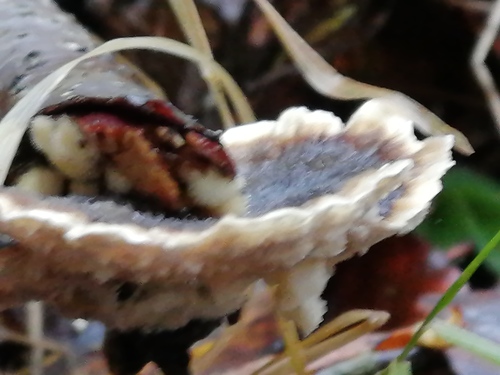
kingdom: Fungi
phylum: Basidiomycota
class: Agaricomycetes
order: Polyporales
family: Polyporaceae
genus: Trametes
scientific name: Trametes ochracea
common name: Ochre bracket
